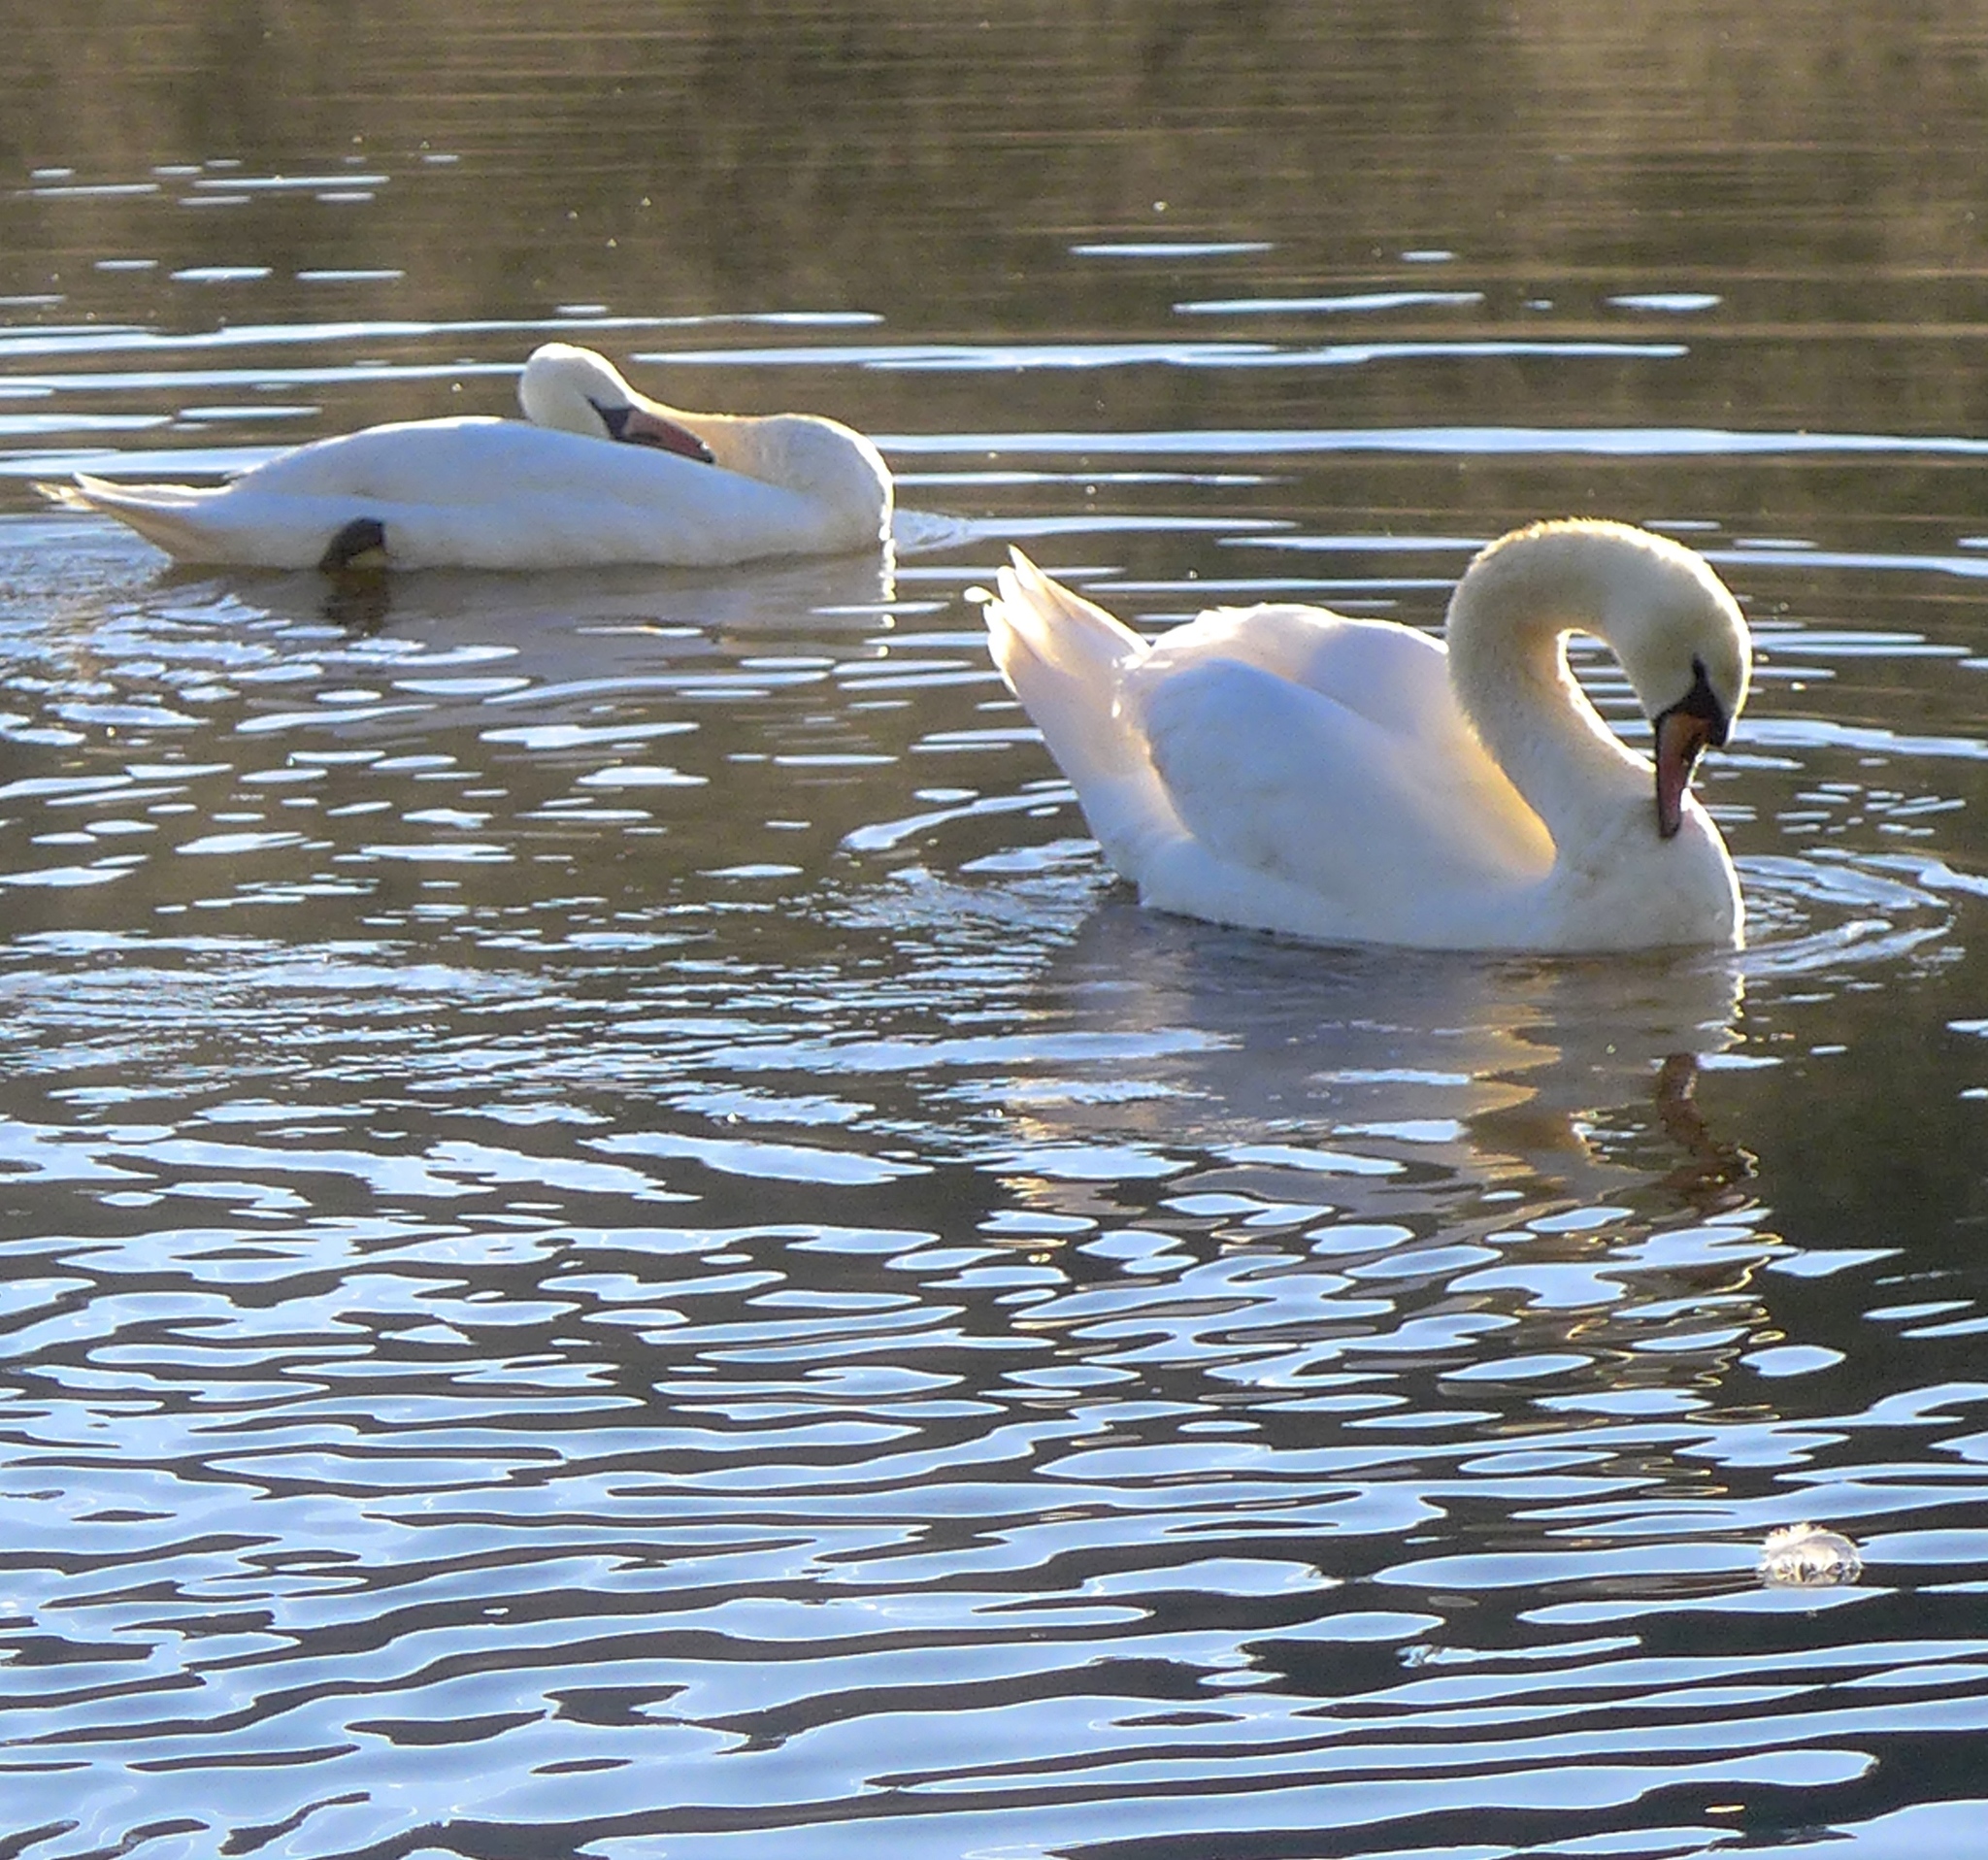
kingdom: Animalia
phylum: Chordata
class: Aves
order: Anseriformes
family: Anatidae
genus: Cygnus
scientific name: Cygnus olor
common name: Mute swan
